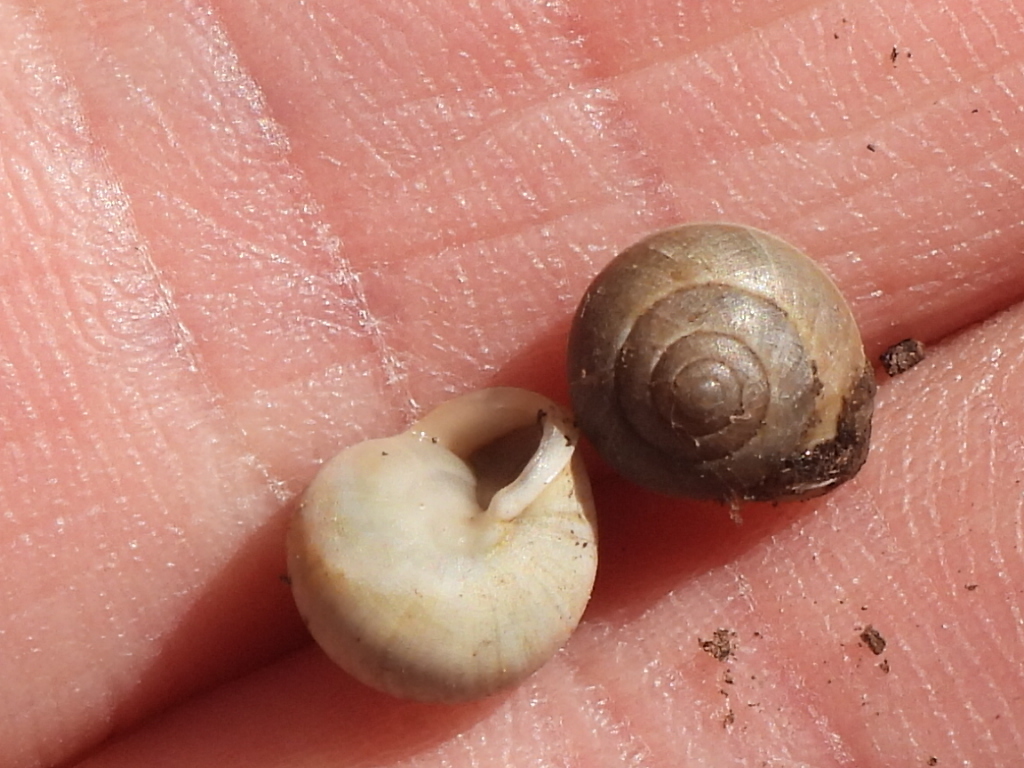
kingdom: Animalia
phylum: Mollusca
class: Gastropoda
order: Cycloneritida
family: Helicinidae
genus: Helicina
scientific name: Helicina orbiculata
